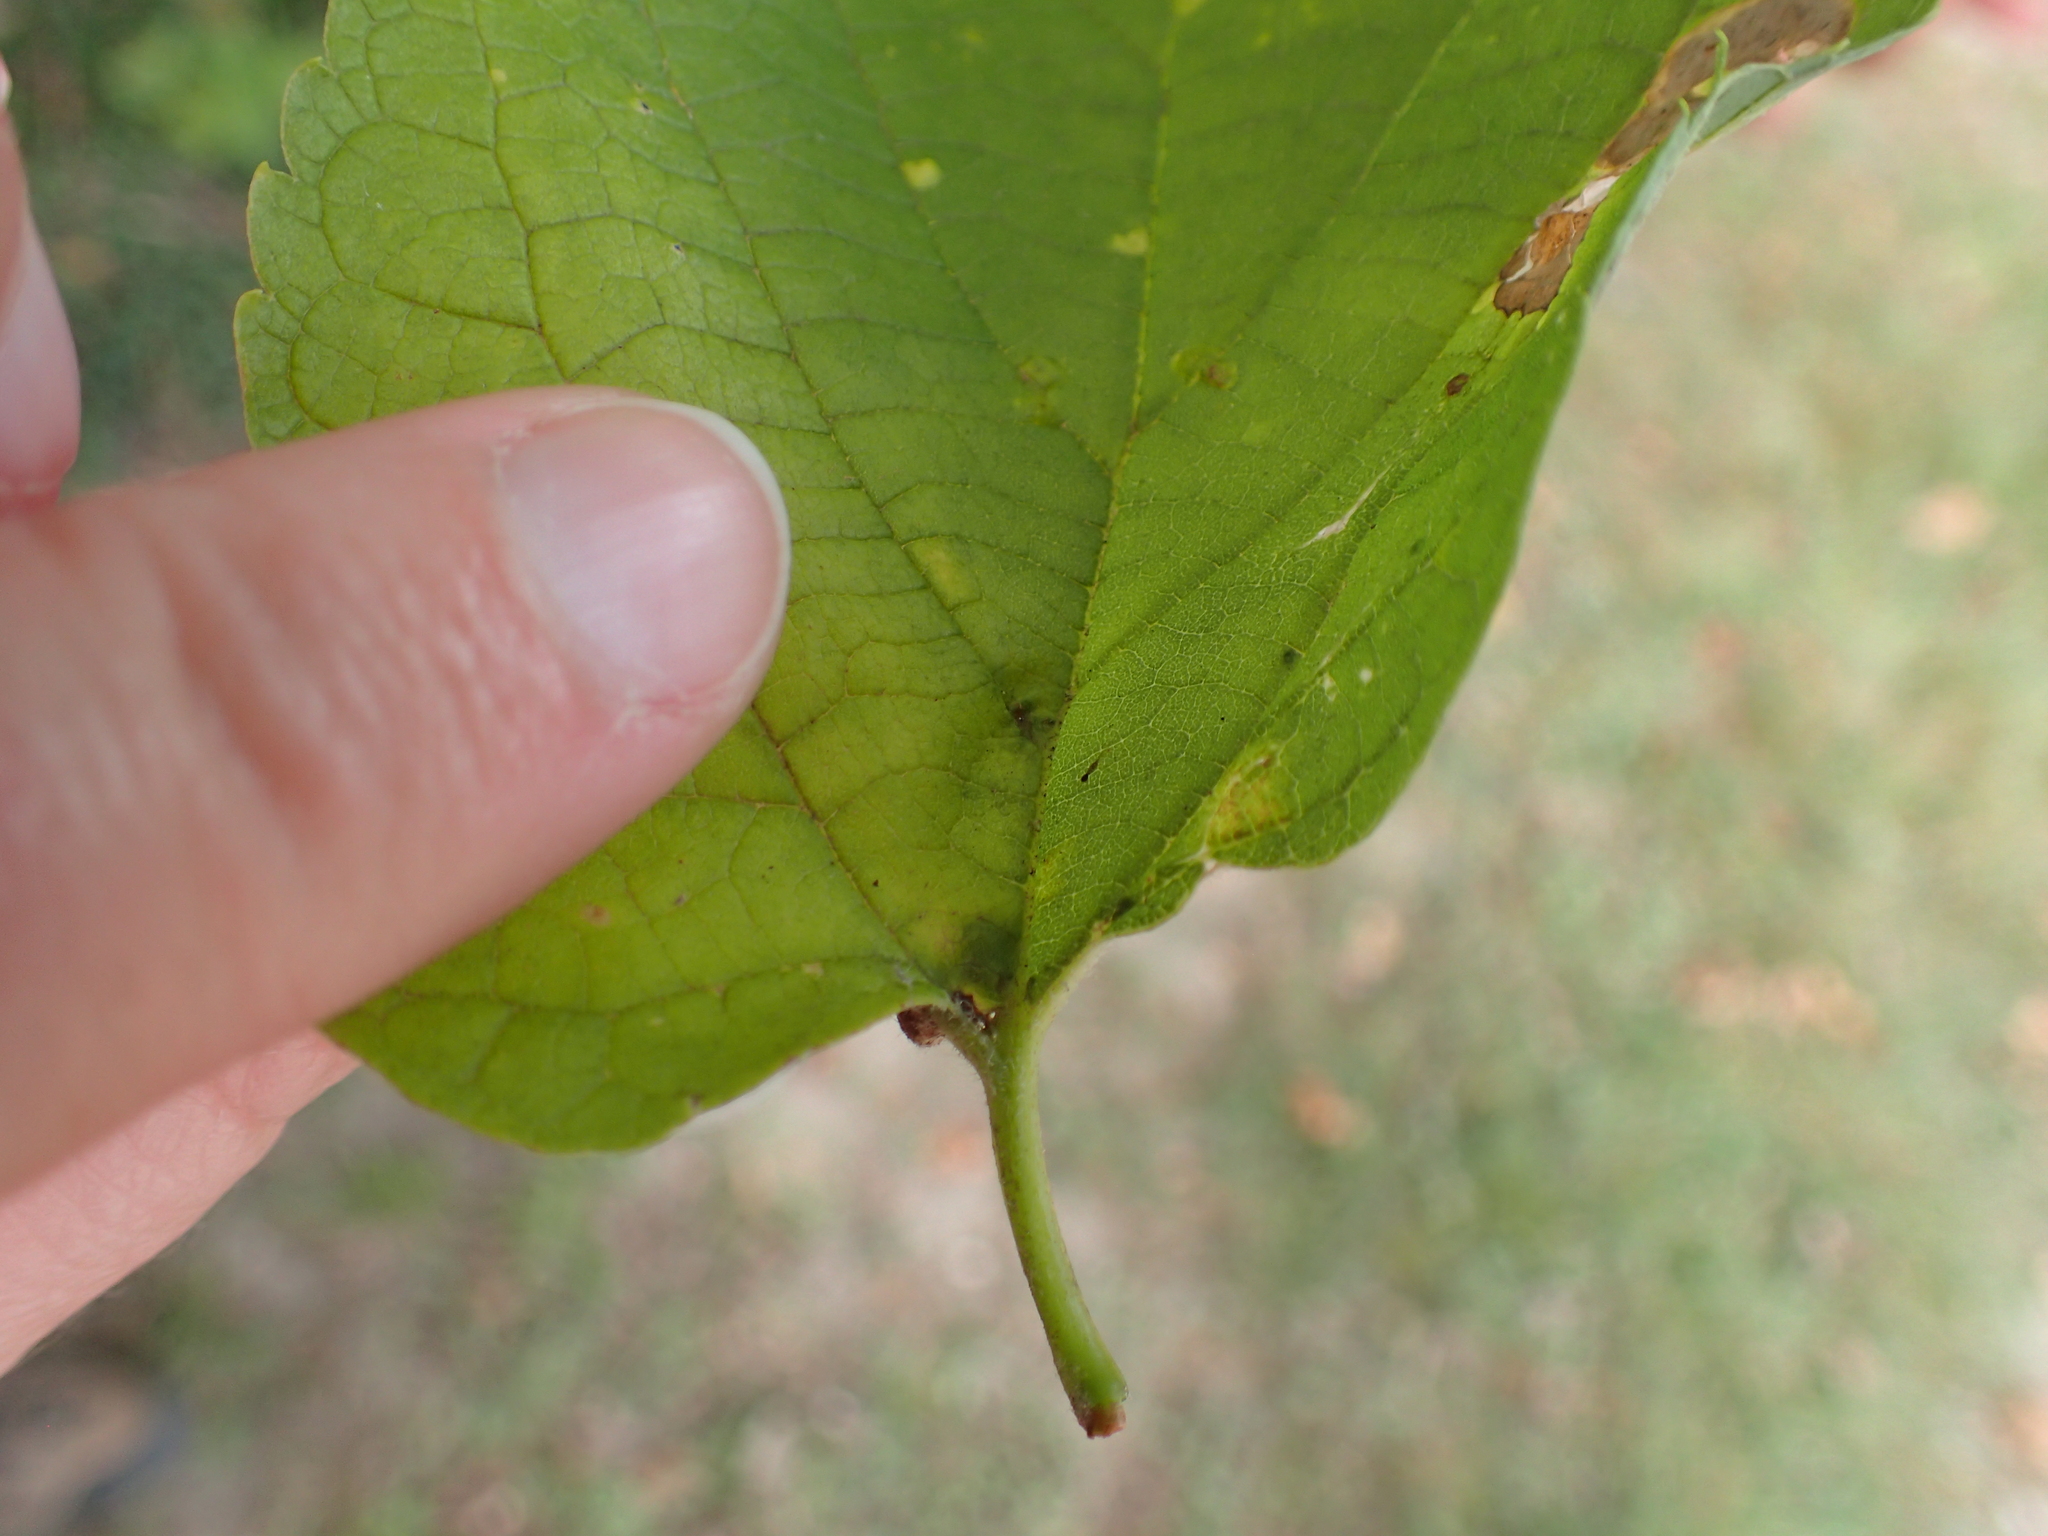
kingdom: Animalia
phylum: Arthropoda
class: Insecta
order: Diptera
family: Cecidomyiidae
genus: Celticecis
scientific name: Celticecis wellsi
